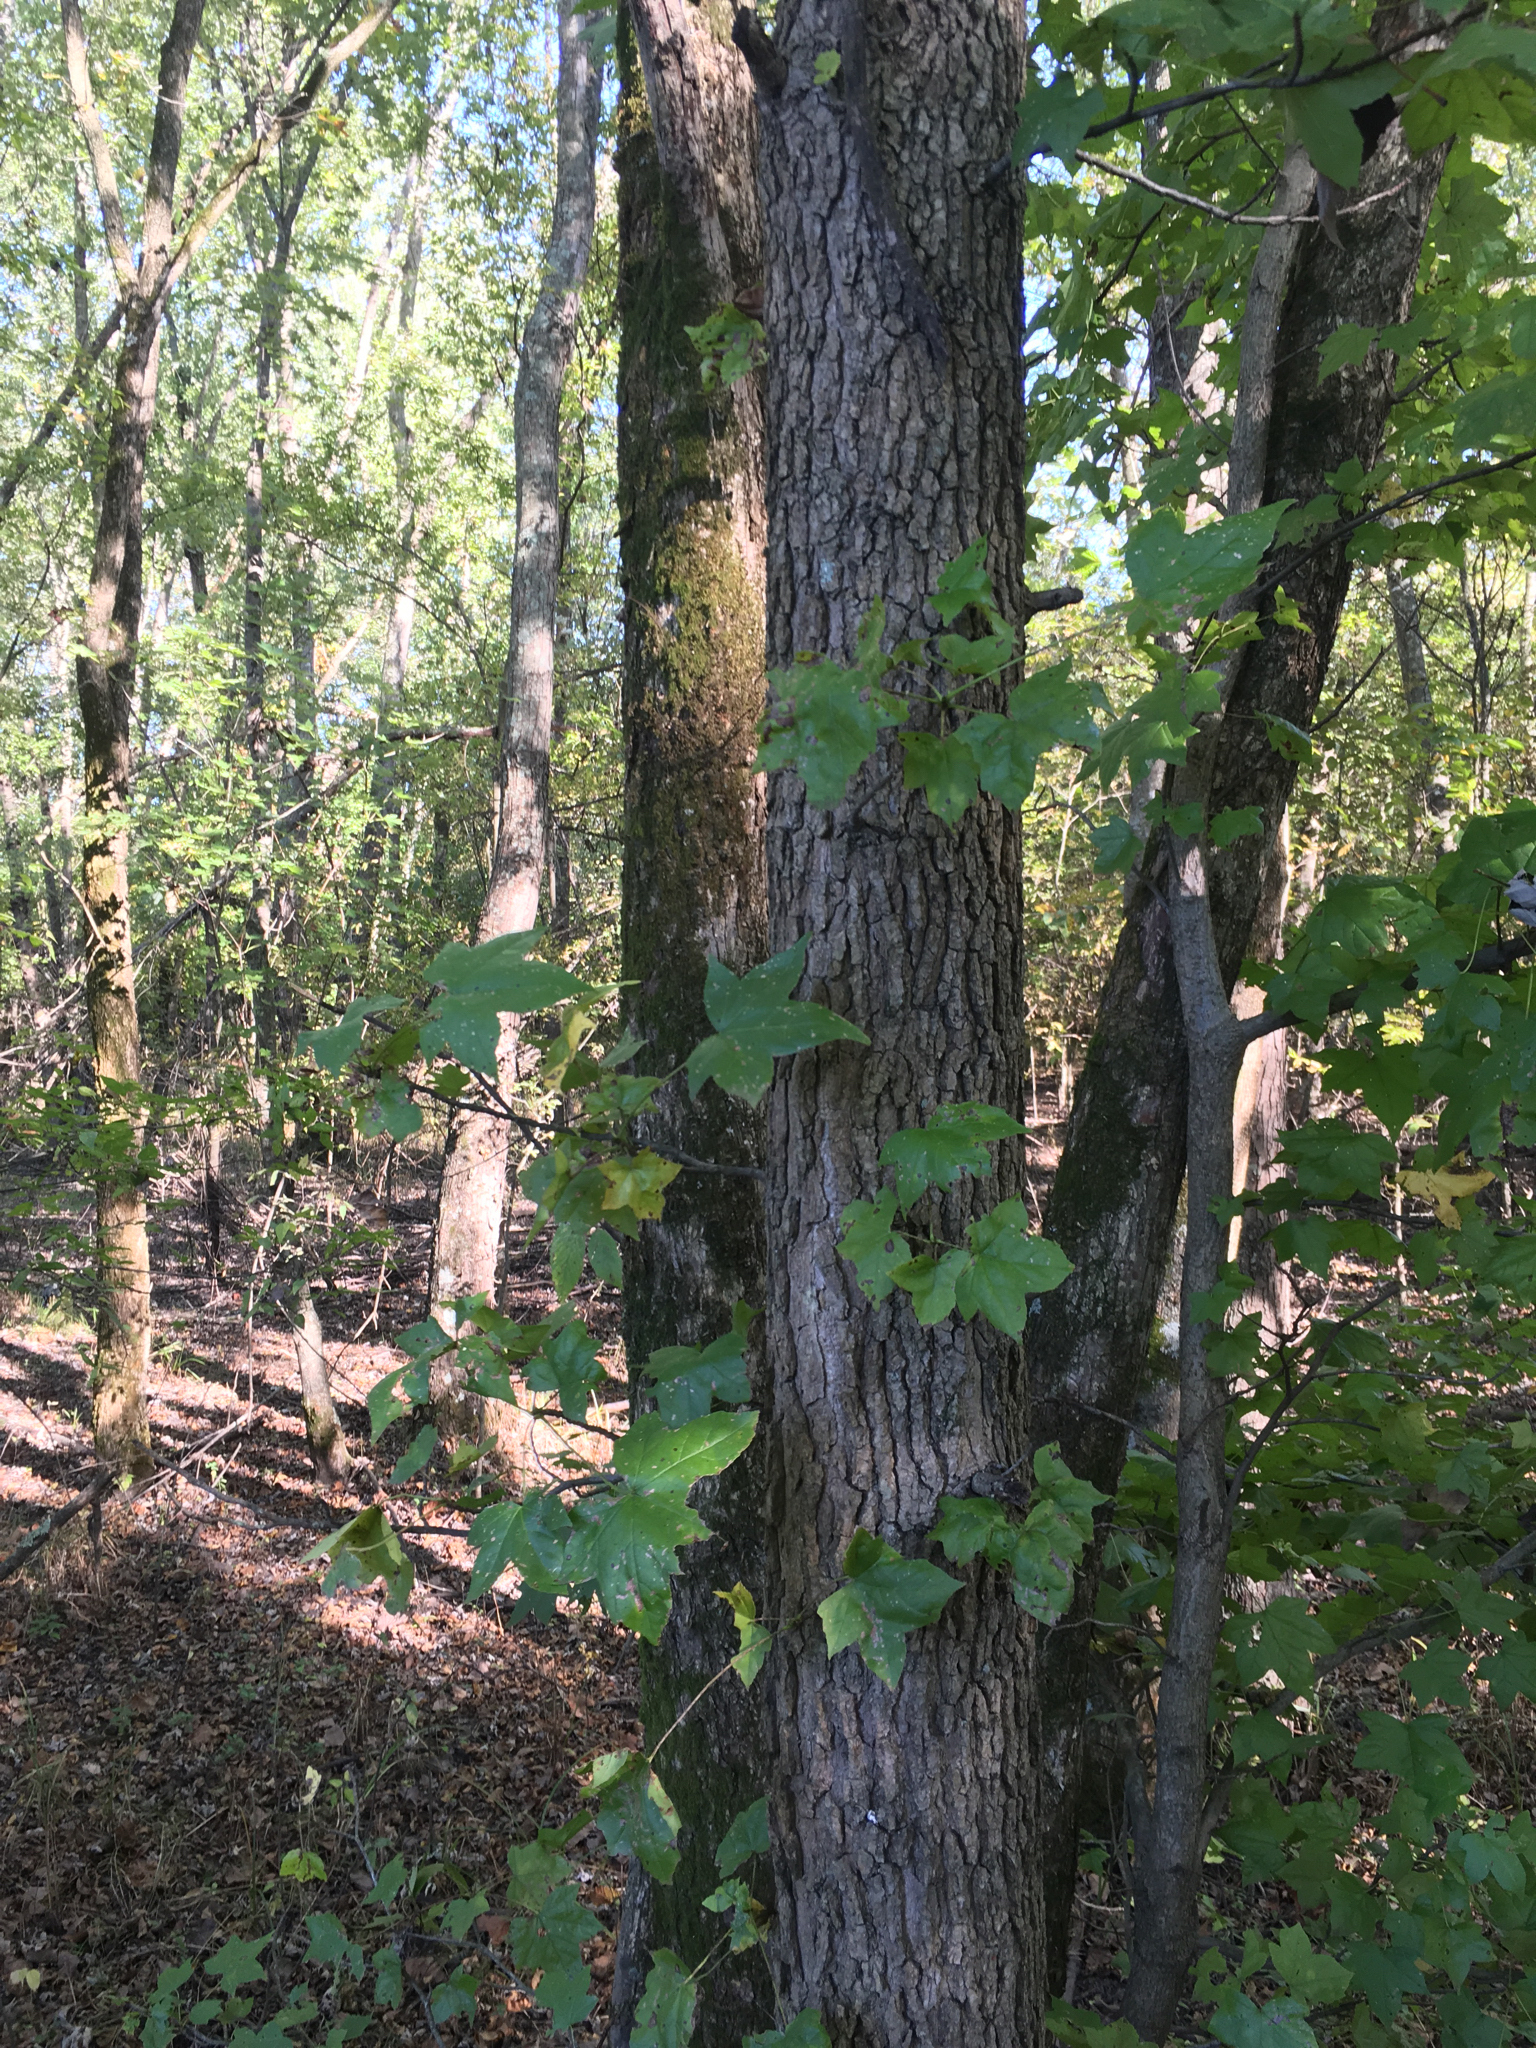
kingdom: Plantae
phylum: Tracheophyta
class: Magnoliopsida
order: Saxifragales
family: Altingiaceae
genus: Liquidambar
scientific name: Liquidambar styraciflua
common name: Sweet gum
